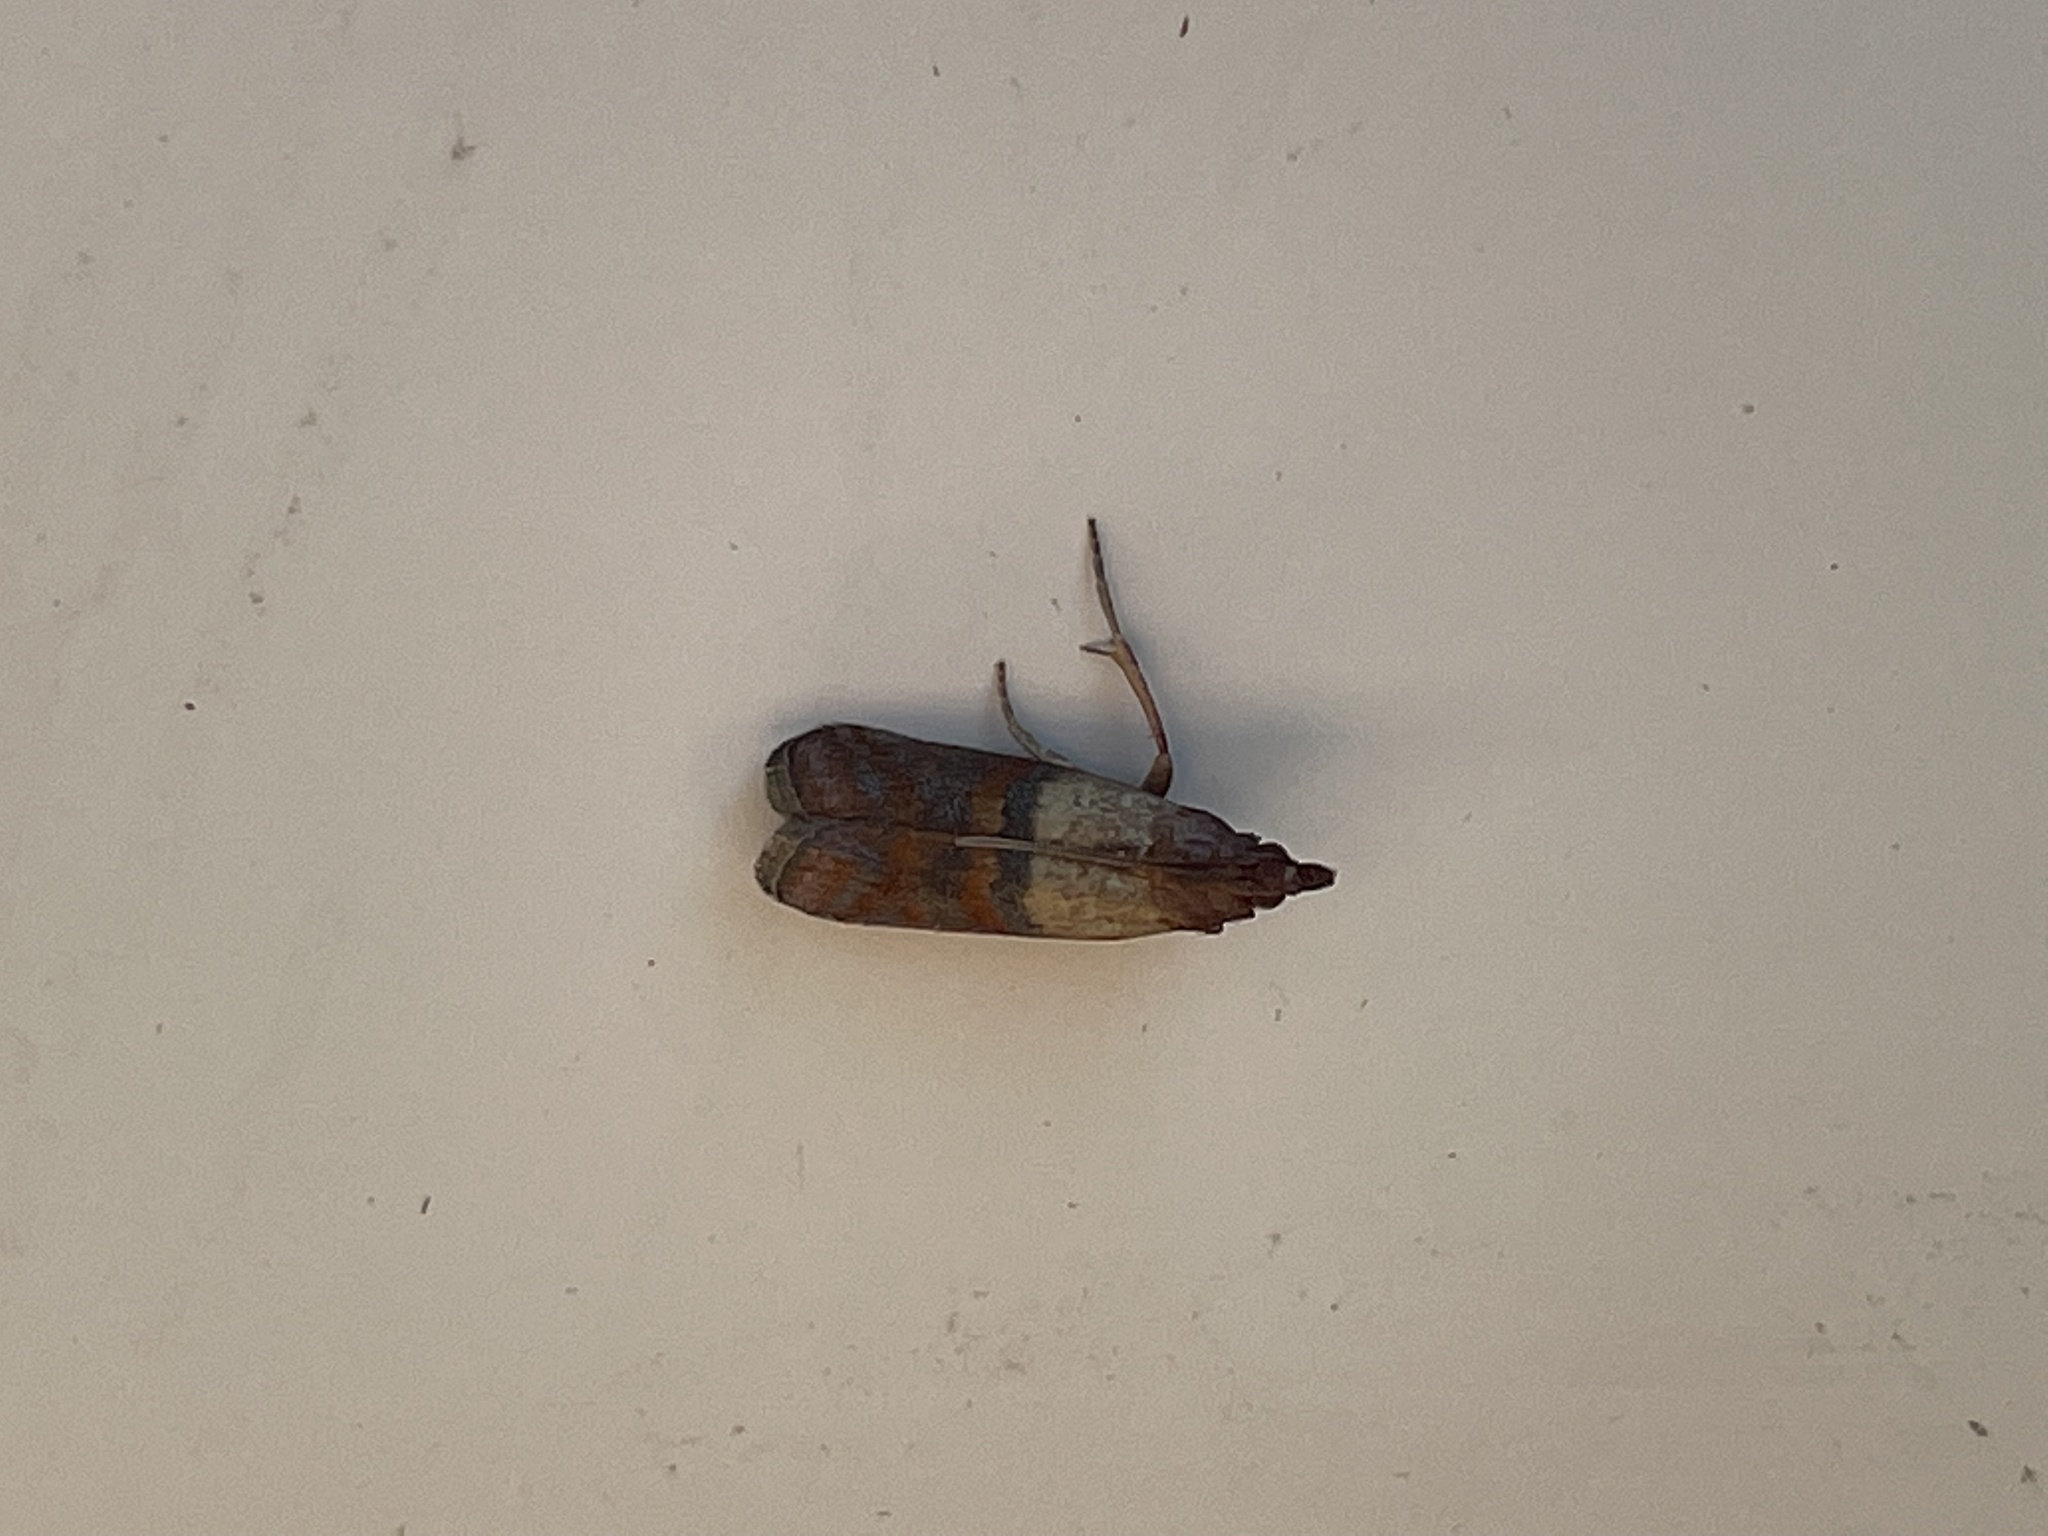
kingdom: Animalia
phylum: Arthropoda
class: Insecta
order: Lepidoptera
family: Pyralidae
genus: Plodia
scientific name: Plodia interpunctella
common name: Indian meal moth
